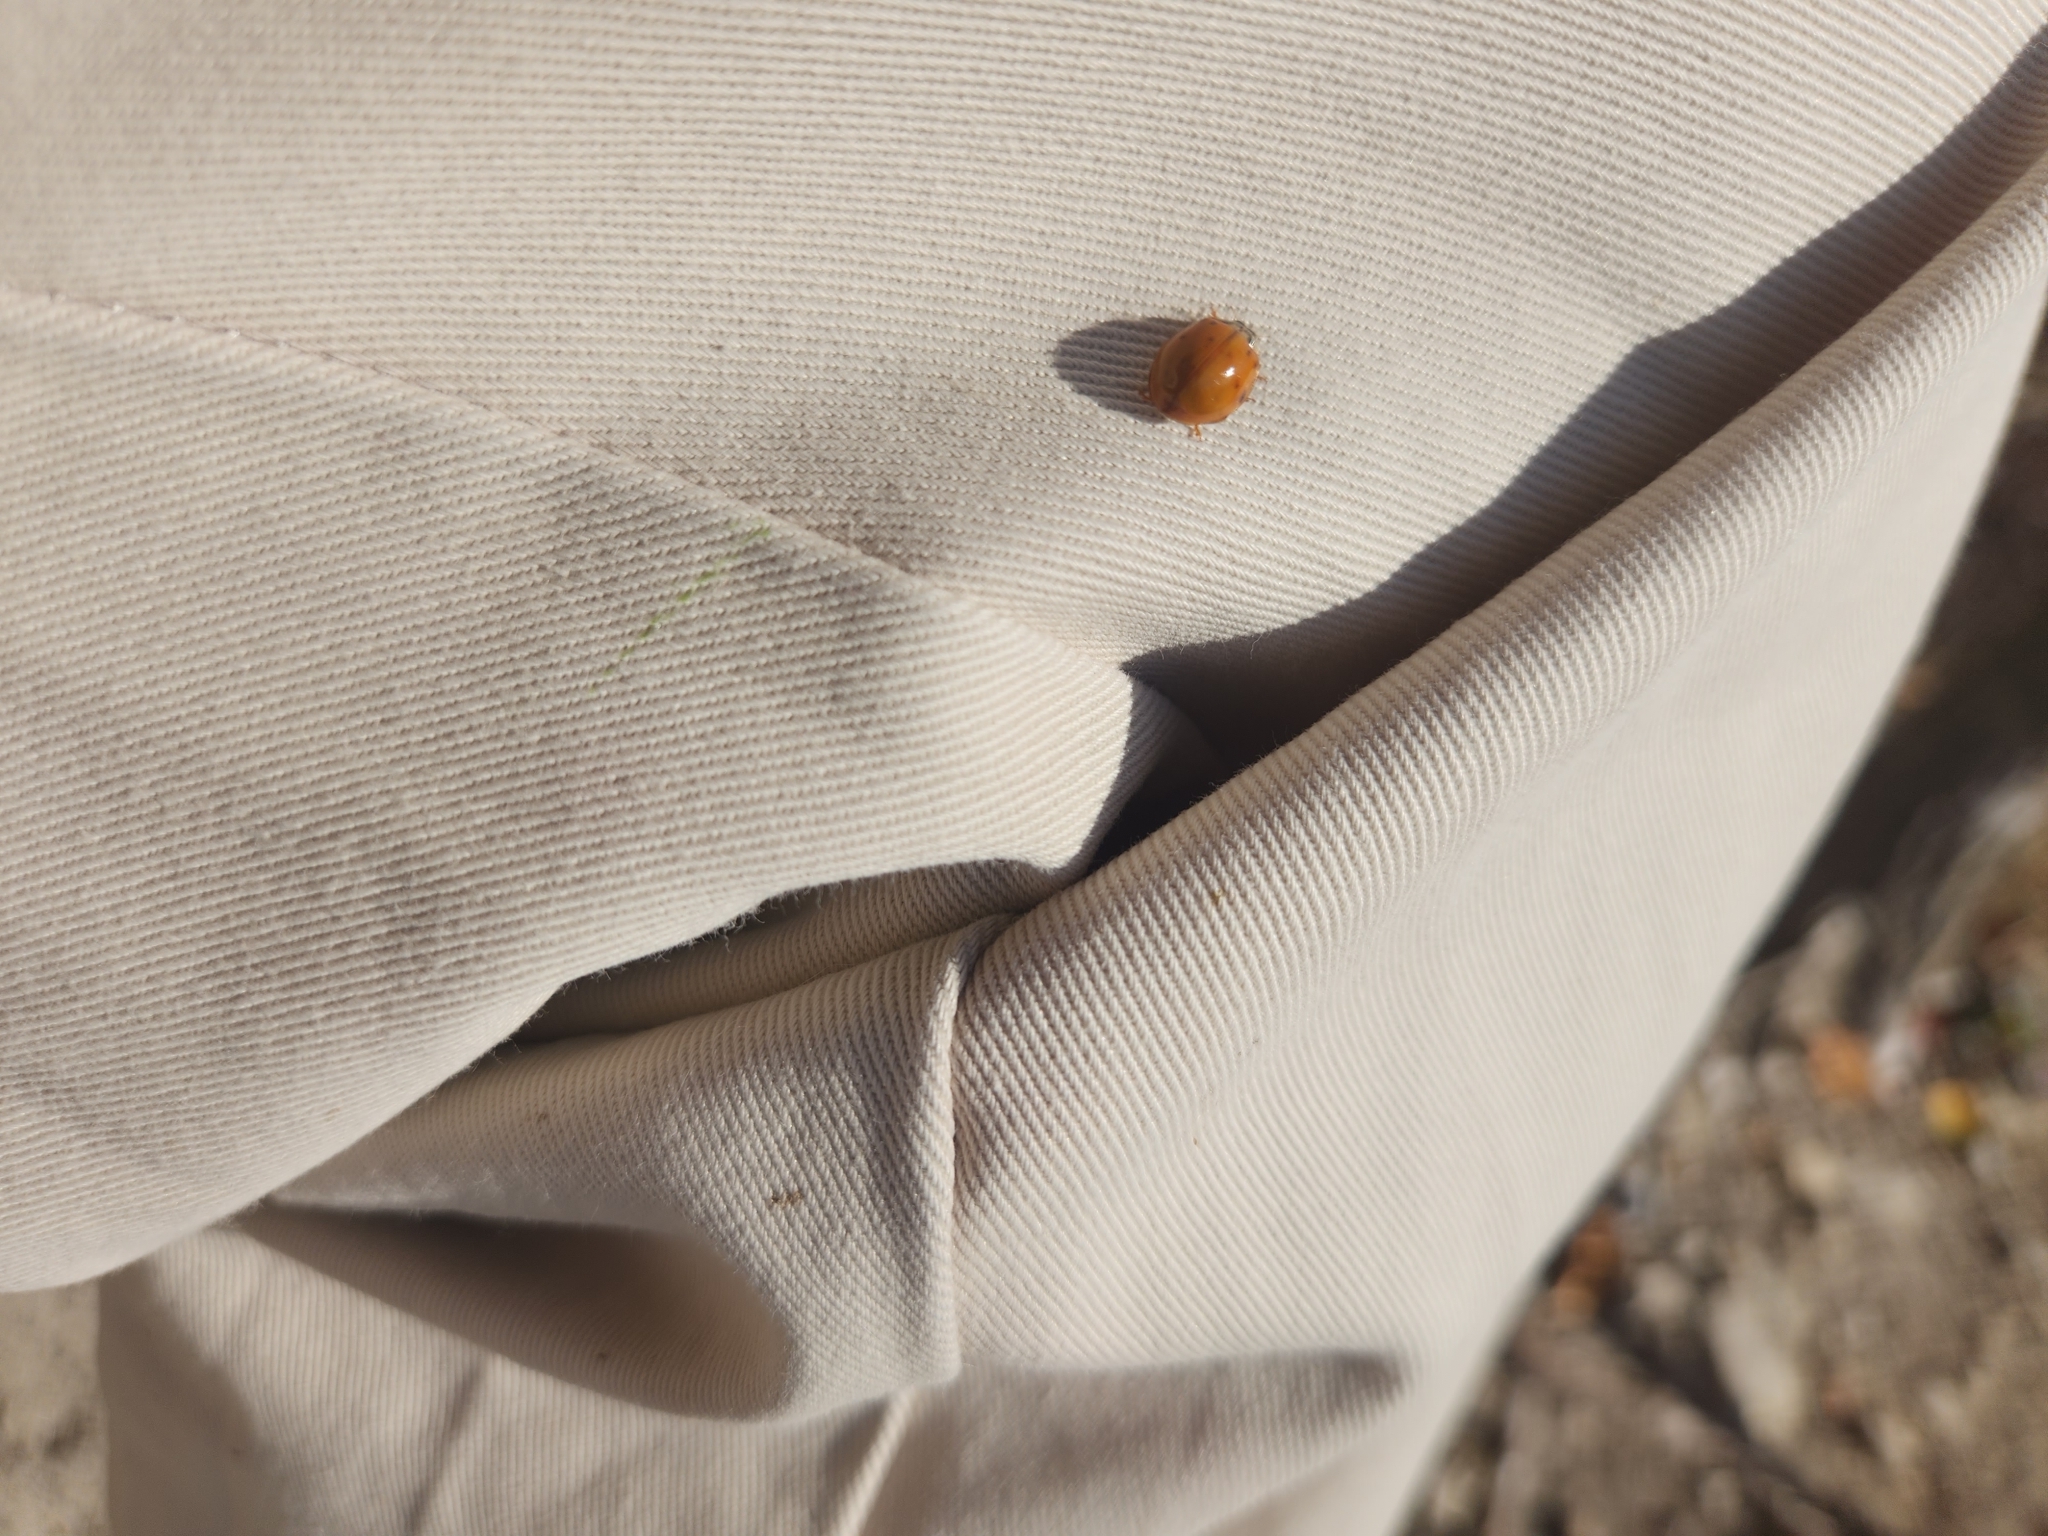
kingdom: Animalia
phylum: Arthropoda
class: Insecta
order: Coleoptera
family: Coccinellidae
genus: Harmonia
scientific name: Harmonia axyridis
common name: Harlequin ladybird
